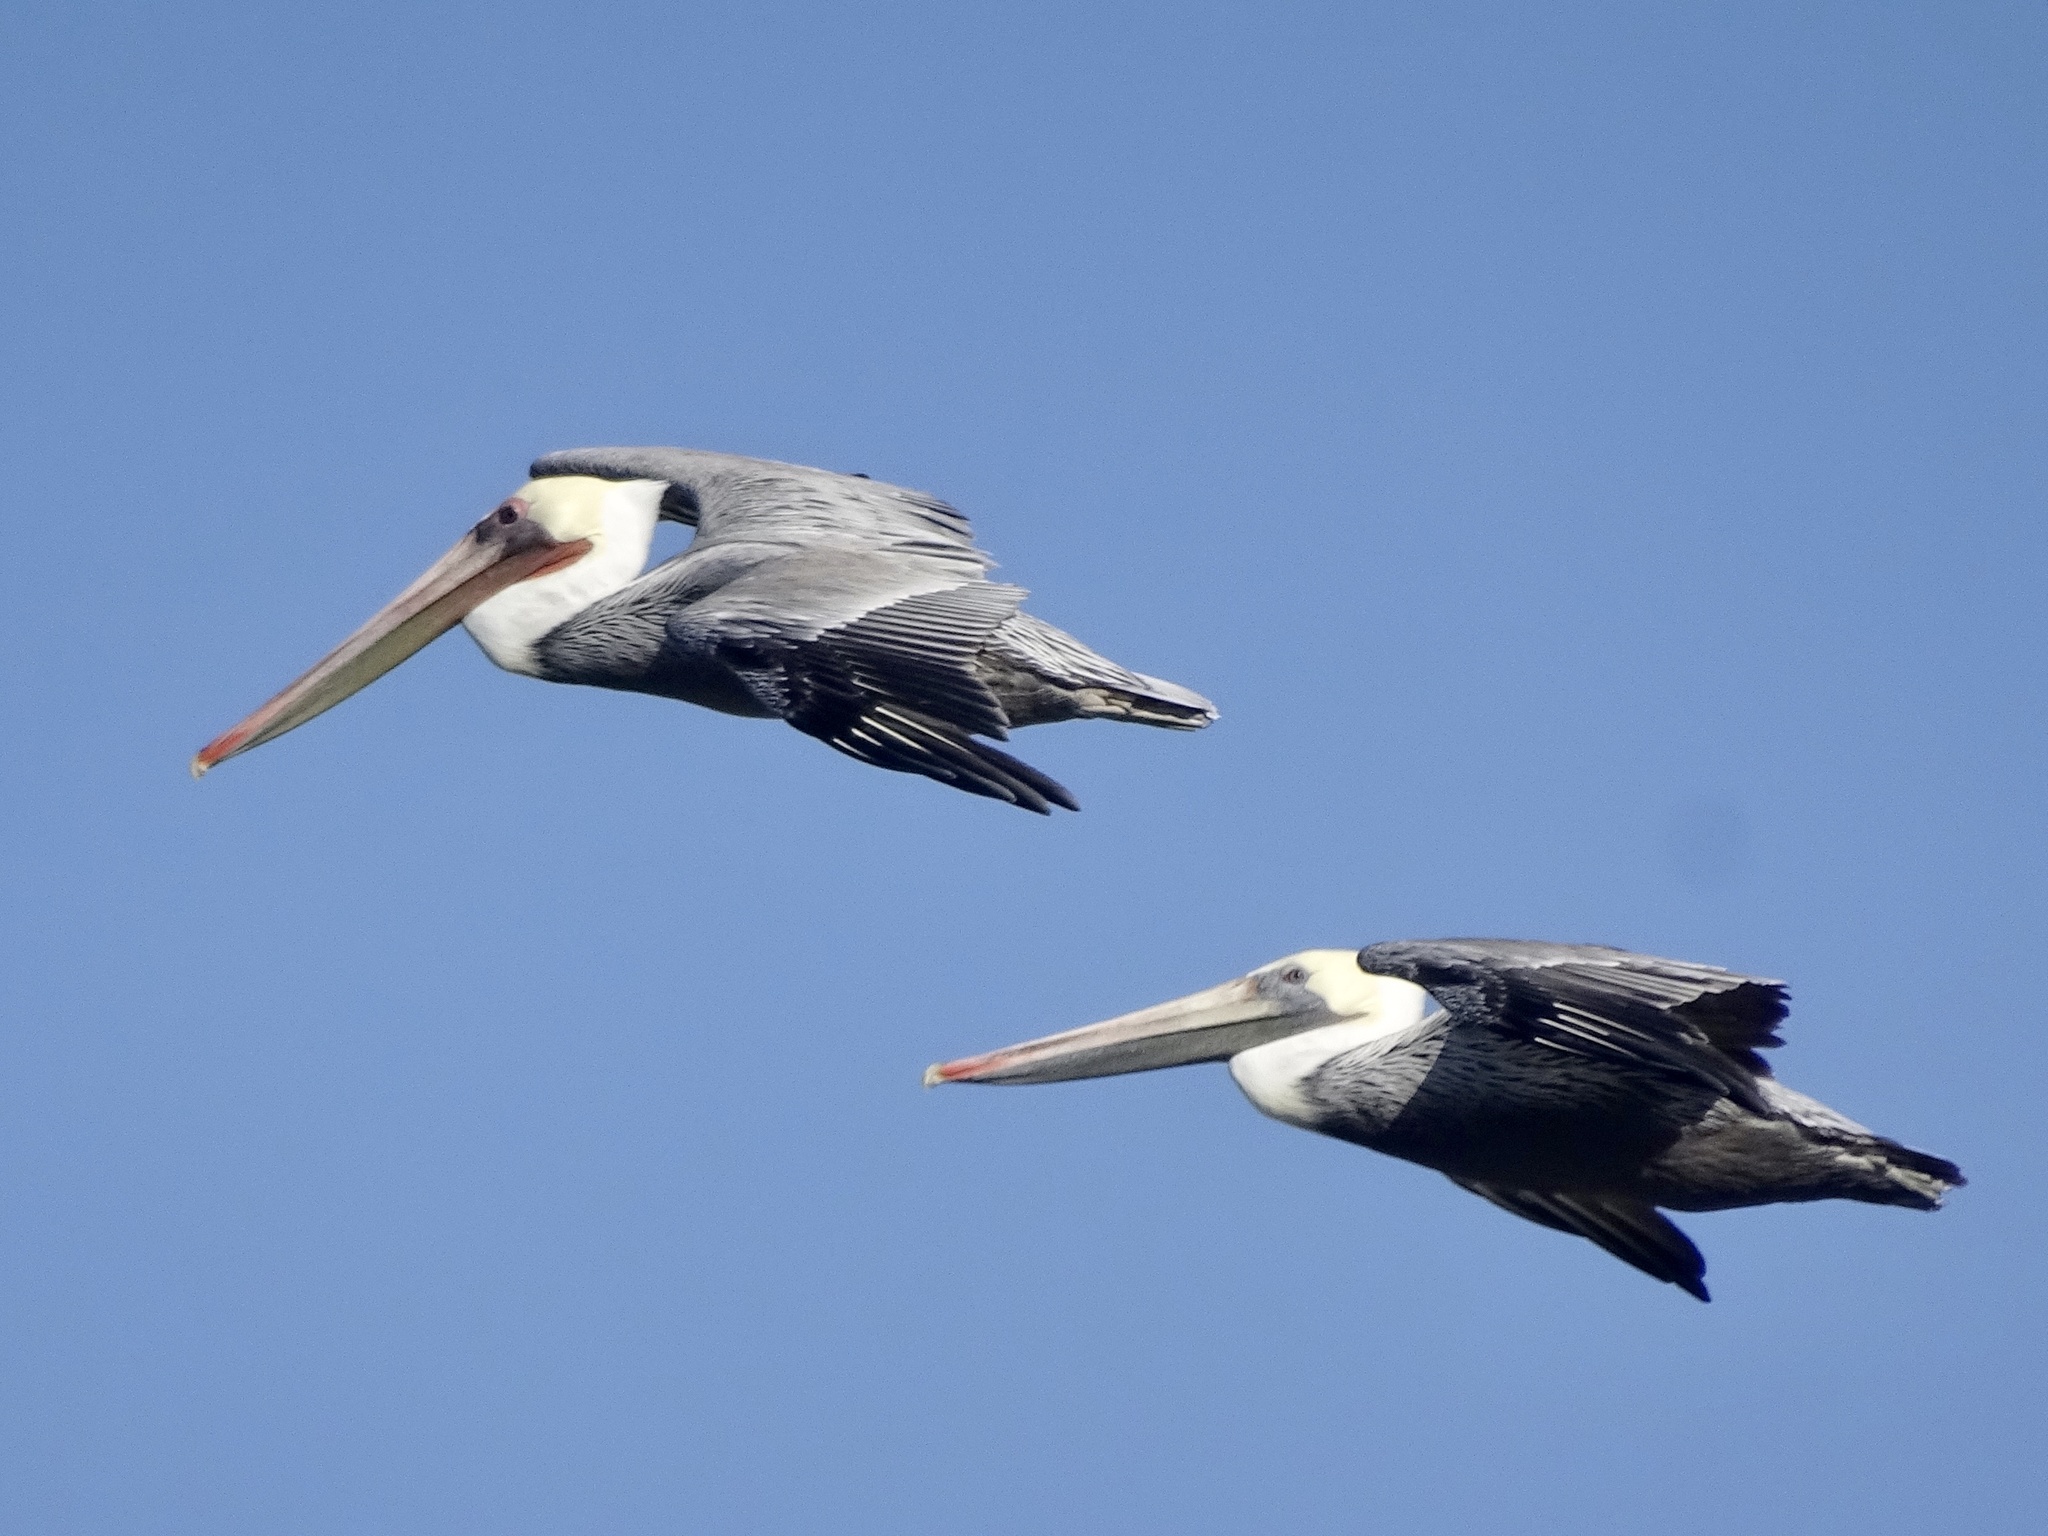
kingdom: Animalia
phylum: Chordata
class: Aves
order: Pelecaniformes
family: Pelecanidae
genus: Pelecanus
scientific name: Pelecanus occidentalis
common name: Brown pelican
